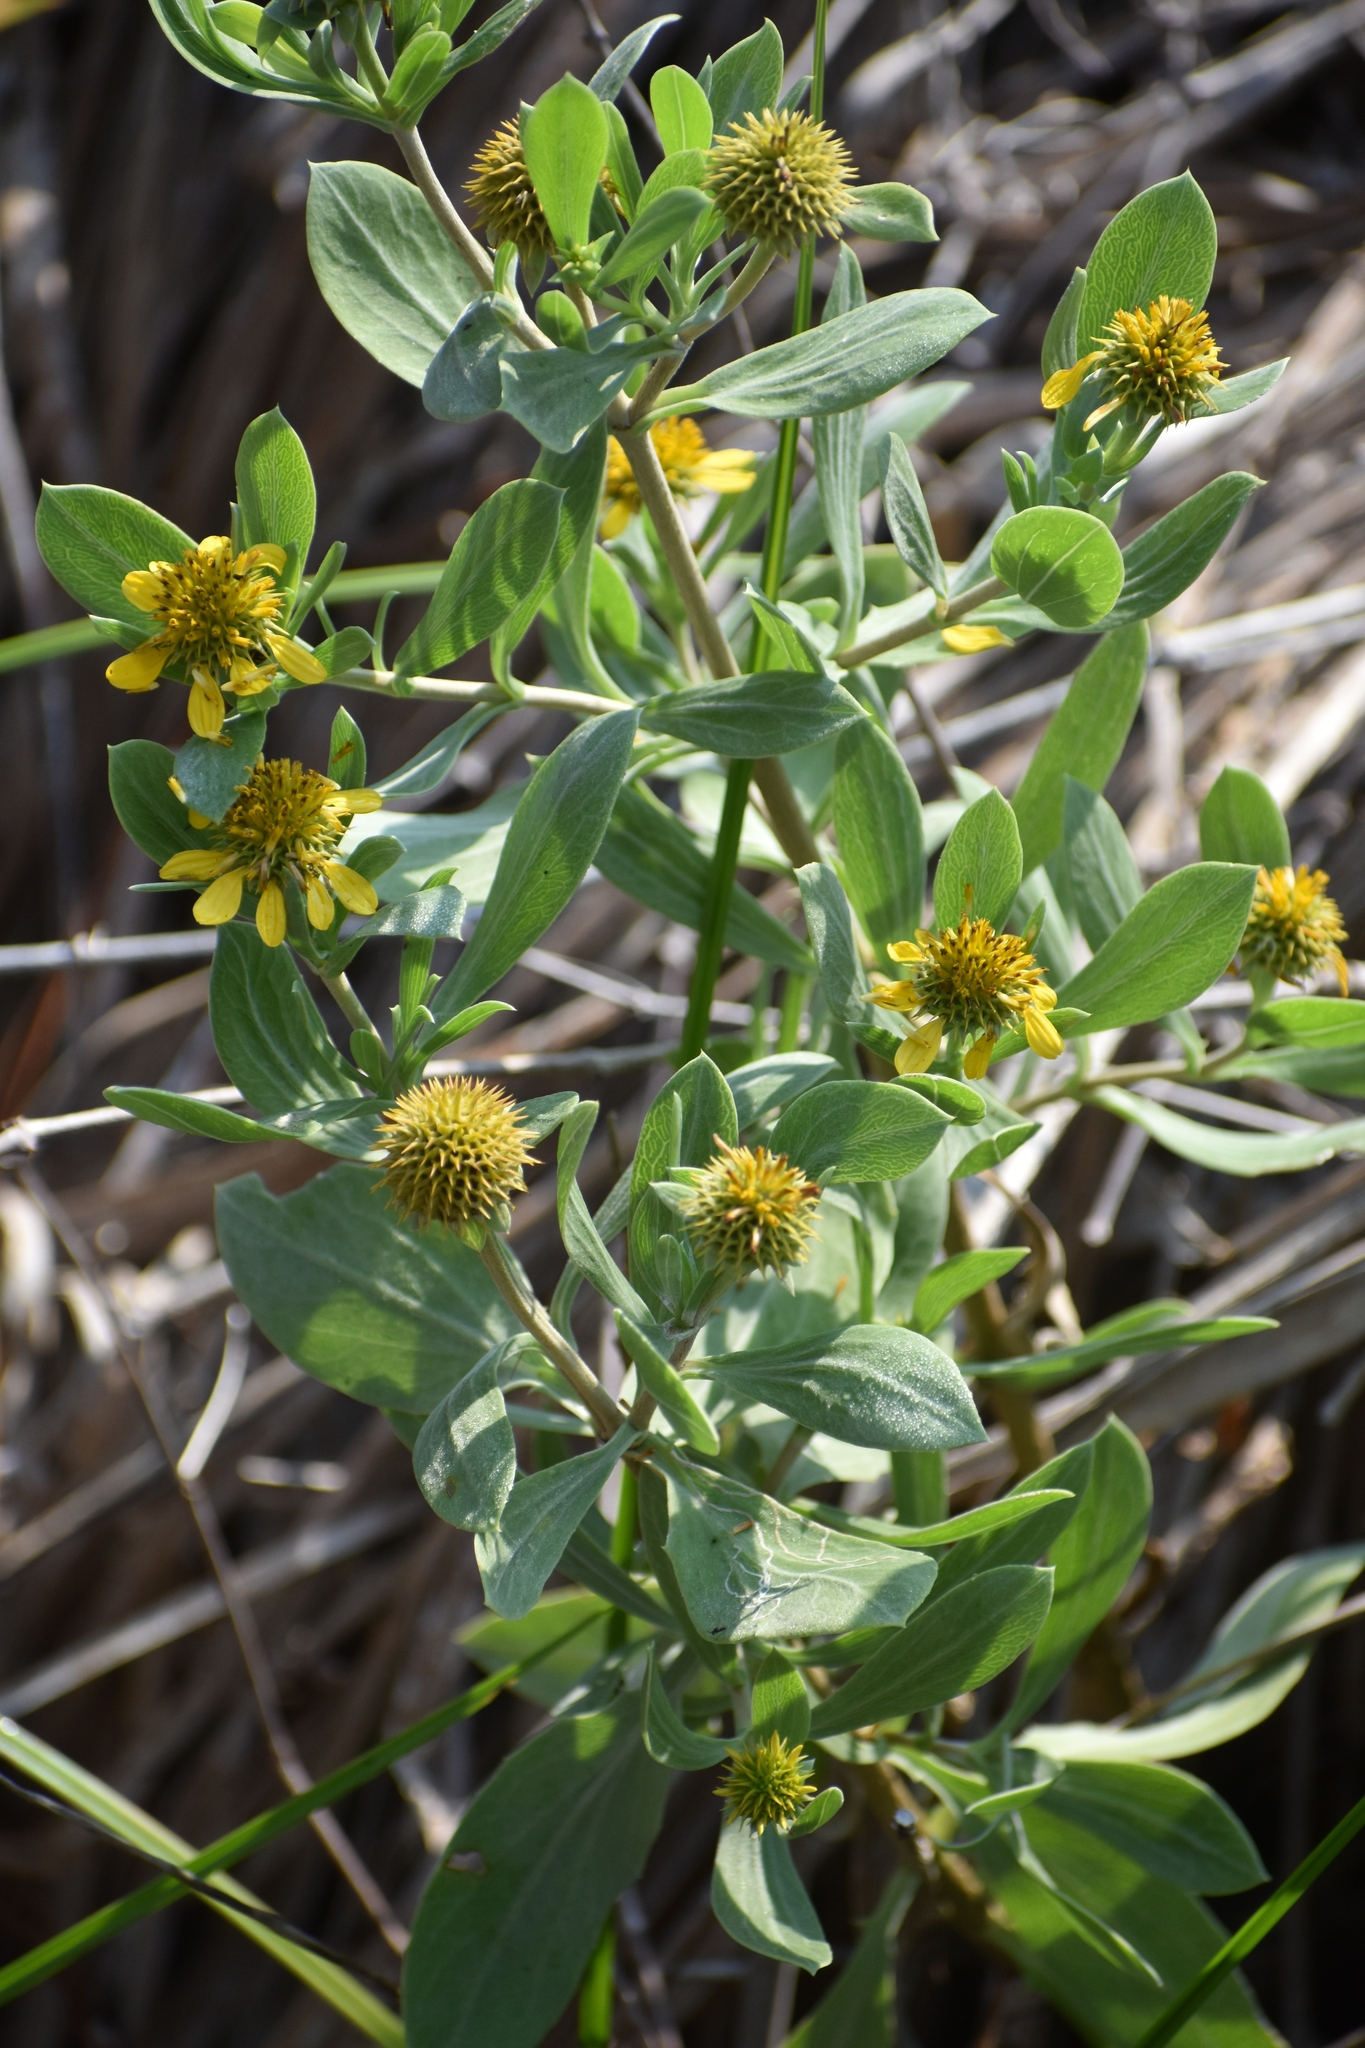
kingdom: Plantae
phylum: Tracheophyta
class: Magnoliopsida
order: Asterales
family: Asteraceae
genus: Borrichia
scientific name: Borrichia frutescens
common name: Sea oxeye
